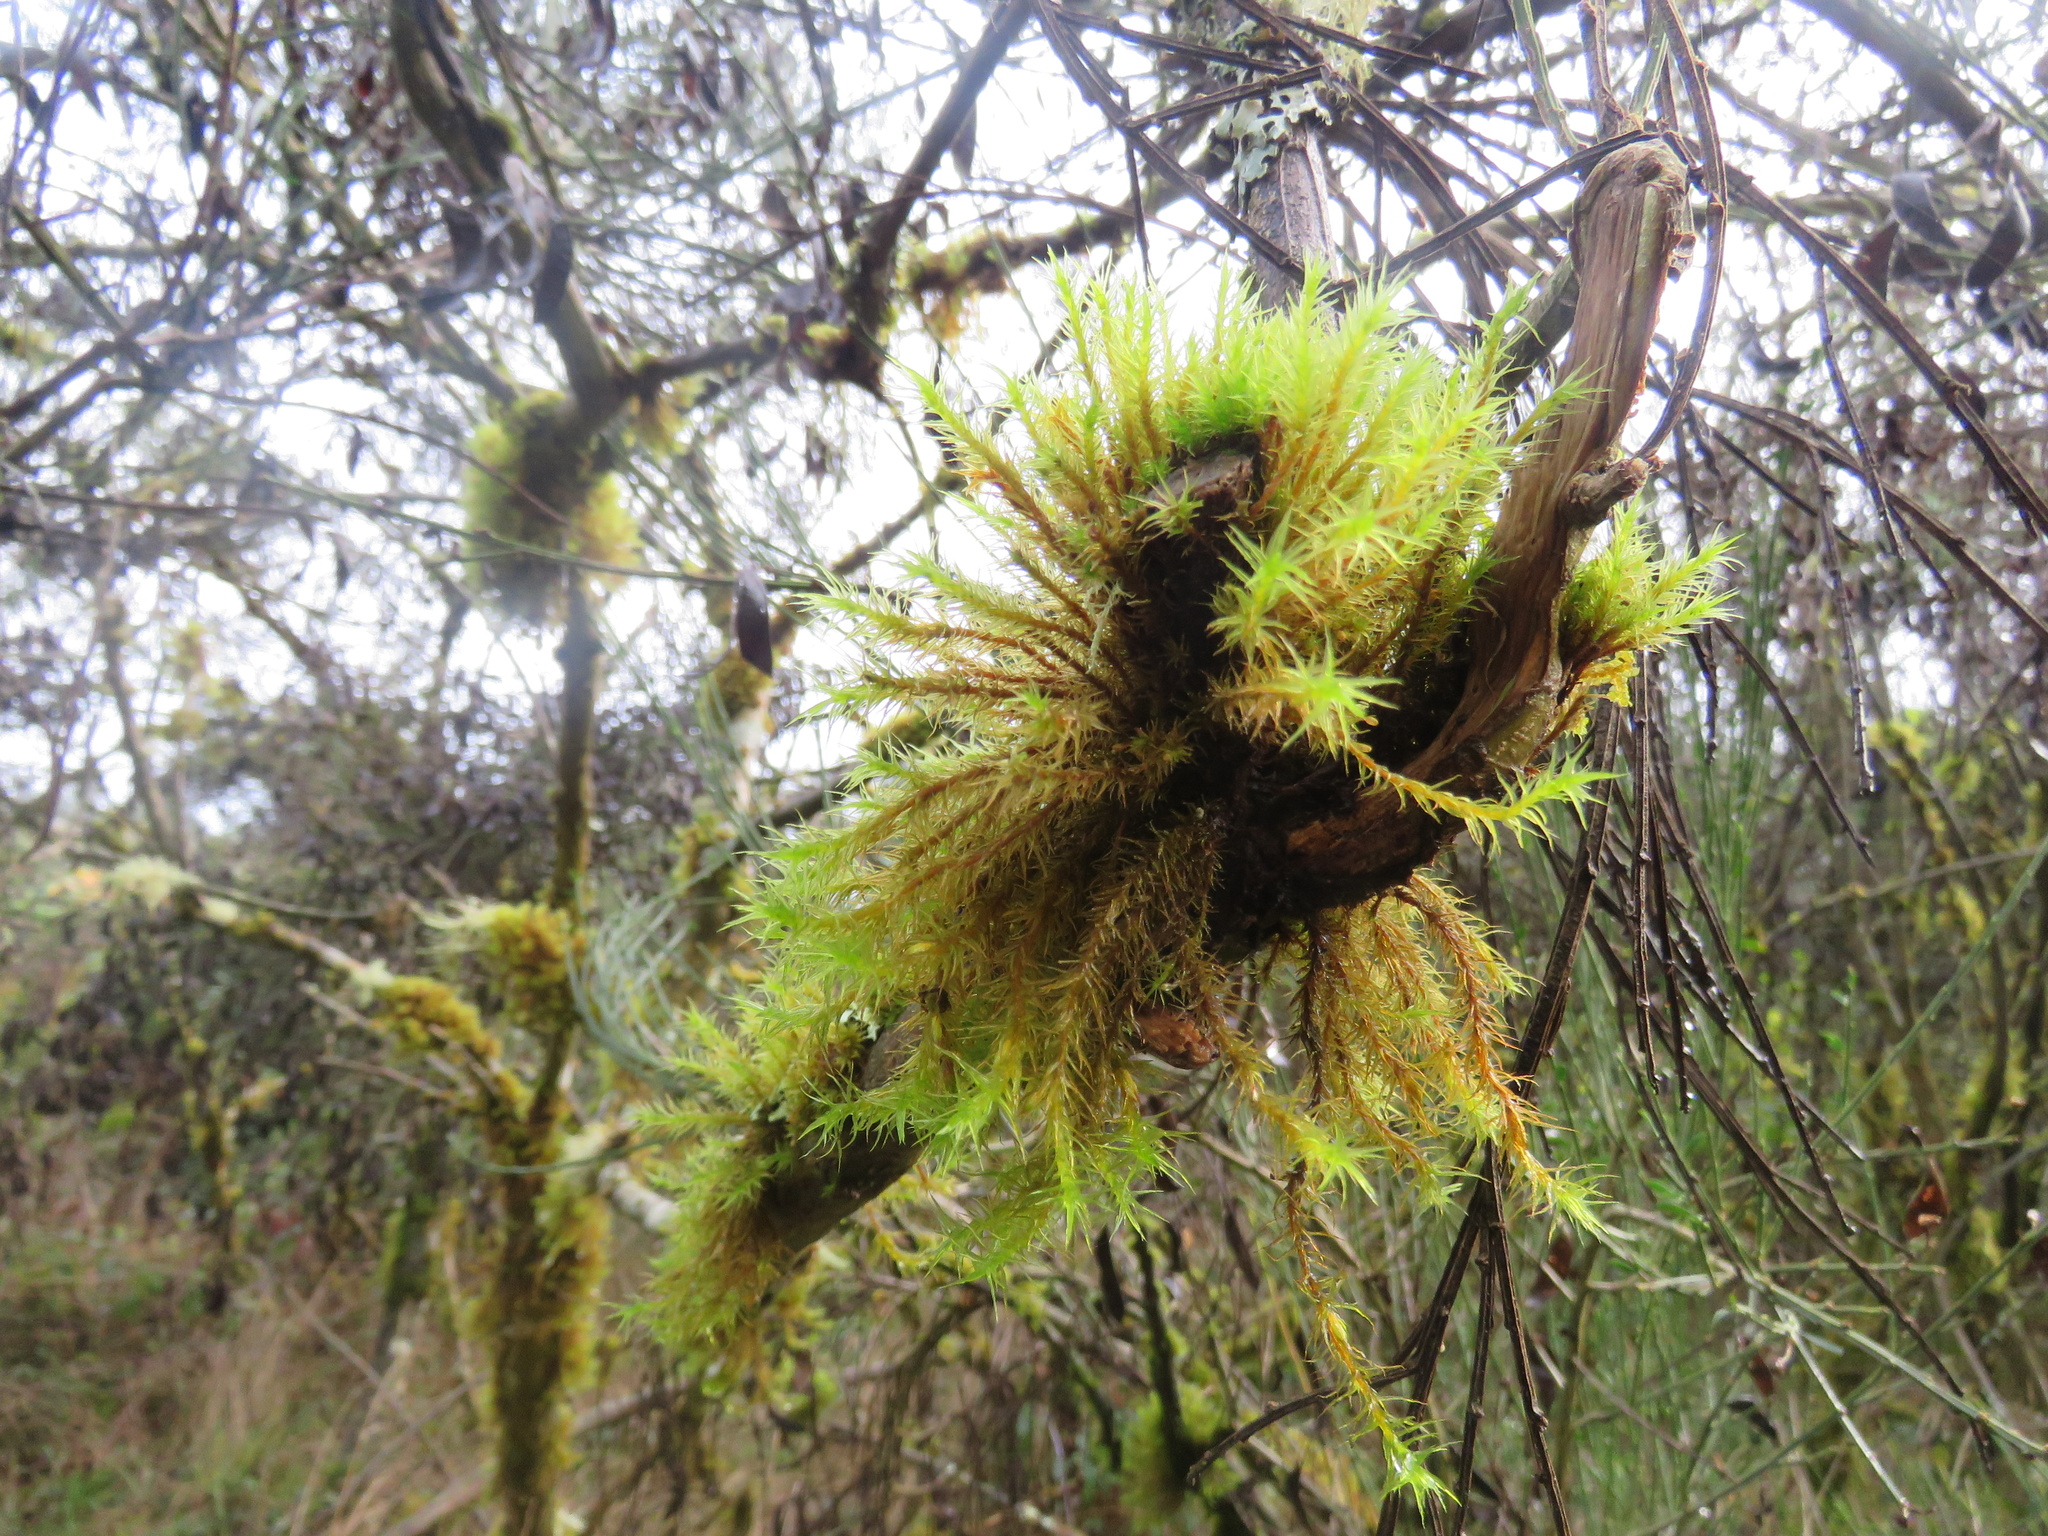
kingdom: Plantae
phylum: Bryophyta
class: Bryopsida
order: Orthotrichales
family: Orthotrichaceae
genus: Pulvigera
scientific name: Pulvigera lyellii
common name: Lyell's bristle-moss
